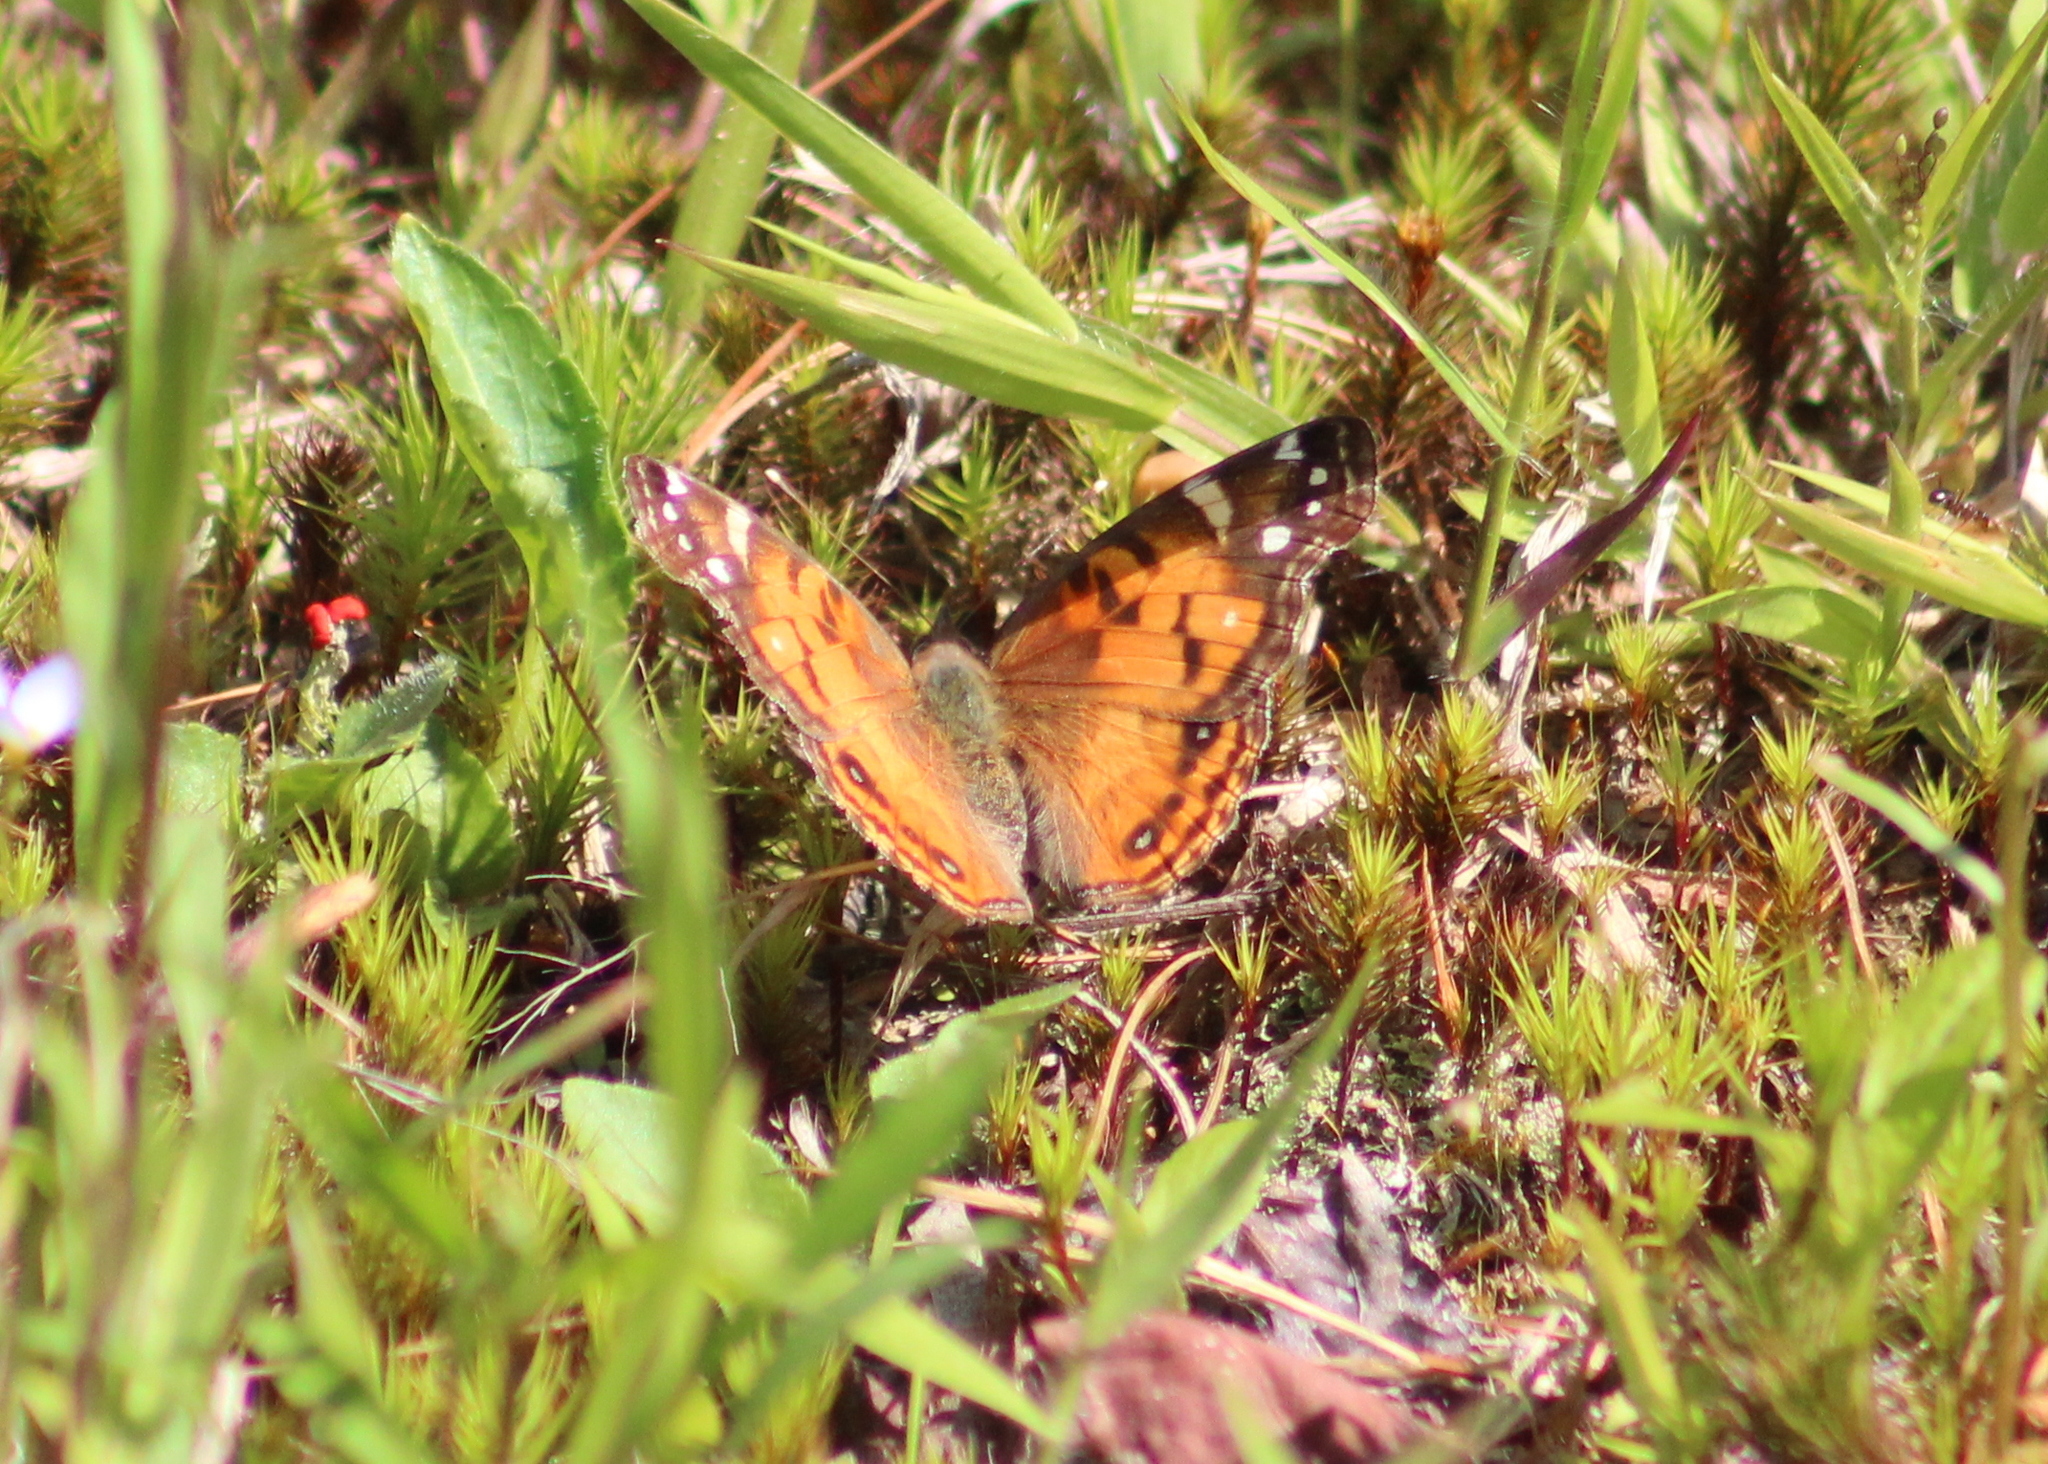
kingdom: Animalia
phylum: Arthropoda
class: Insecta
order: Lepidoptera
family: Nymphalidae
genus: Vanessa
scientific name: Vanessa virginiensis
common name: American lady
